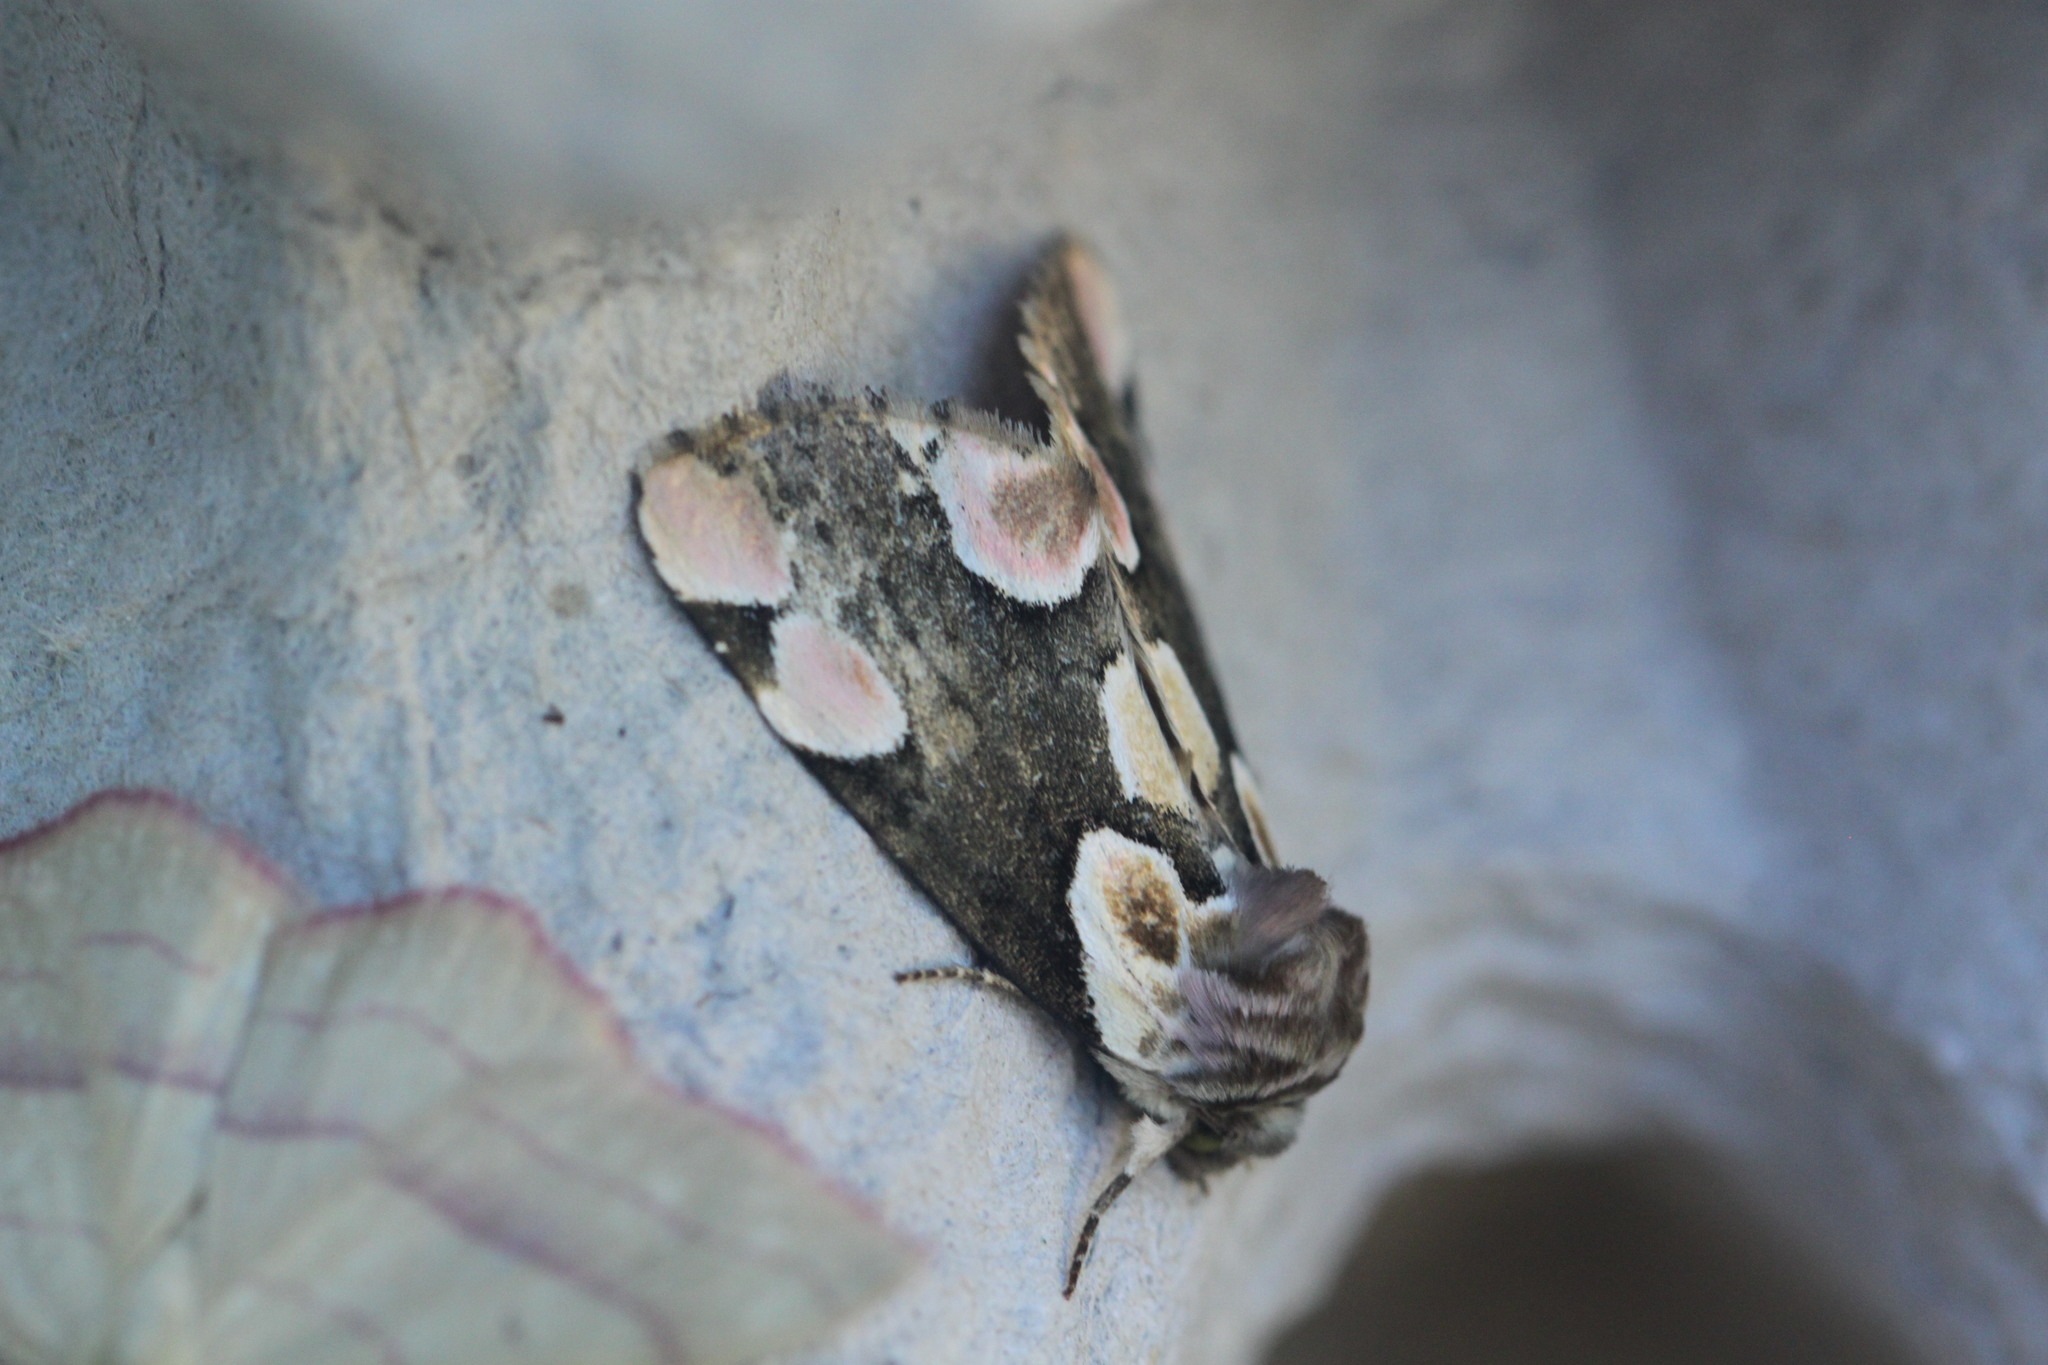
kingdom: Animalia
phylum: Arthropoda
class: Insecta
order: Lepidoptera
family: Drepanidae
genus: Thyatira
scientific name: Thyatira batis
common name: Peach blossom
